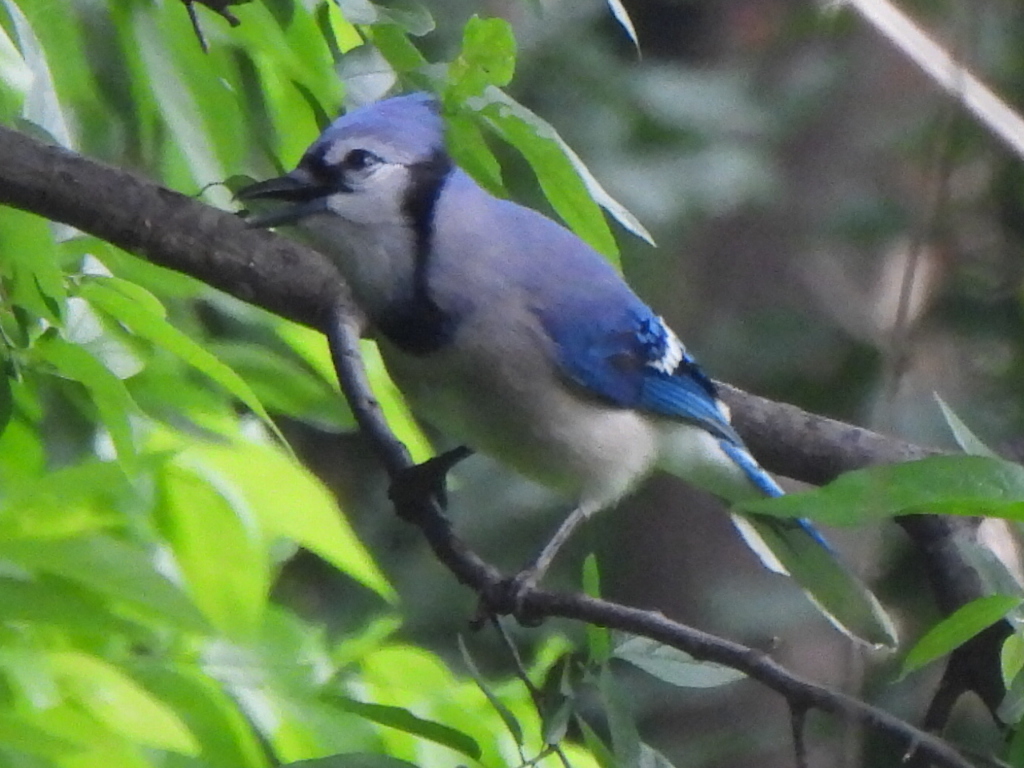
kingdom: Animalia
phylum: Chordata
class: Aves
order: Passeriformes
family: Corvidae
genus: Cyanocitta
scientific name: Cyanocitta cristata
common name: Blue jay
